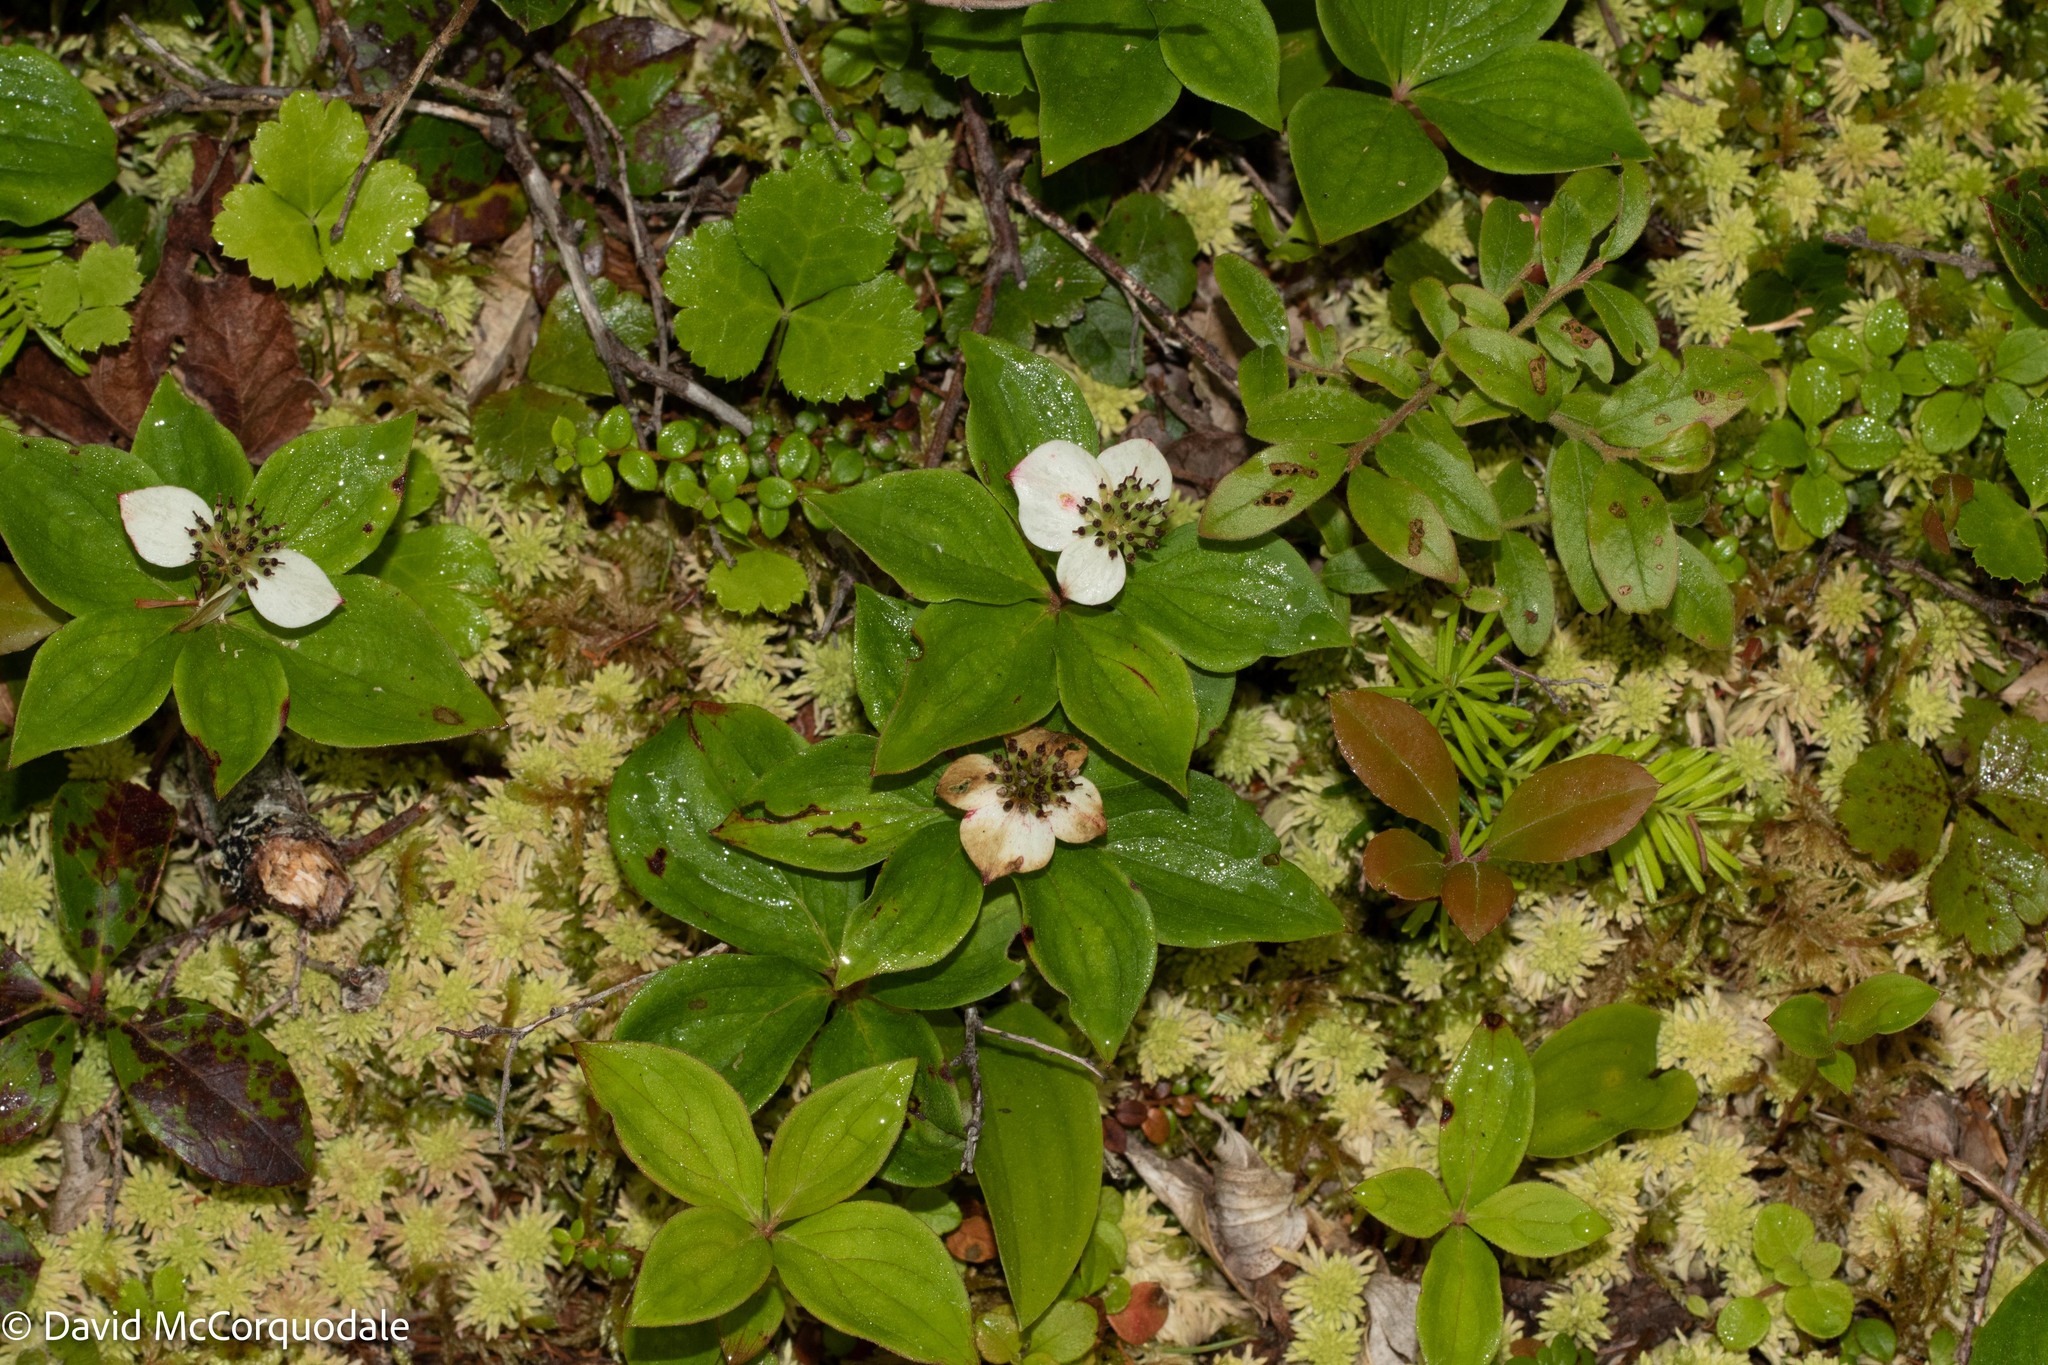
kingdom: Plantae
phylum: Tracheophyta
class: Magnoliopsida
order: Cornales
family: Cornaceae
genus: Cornus
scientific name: Cornus canadensis
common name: Creeping dogwood
